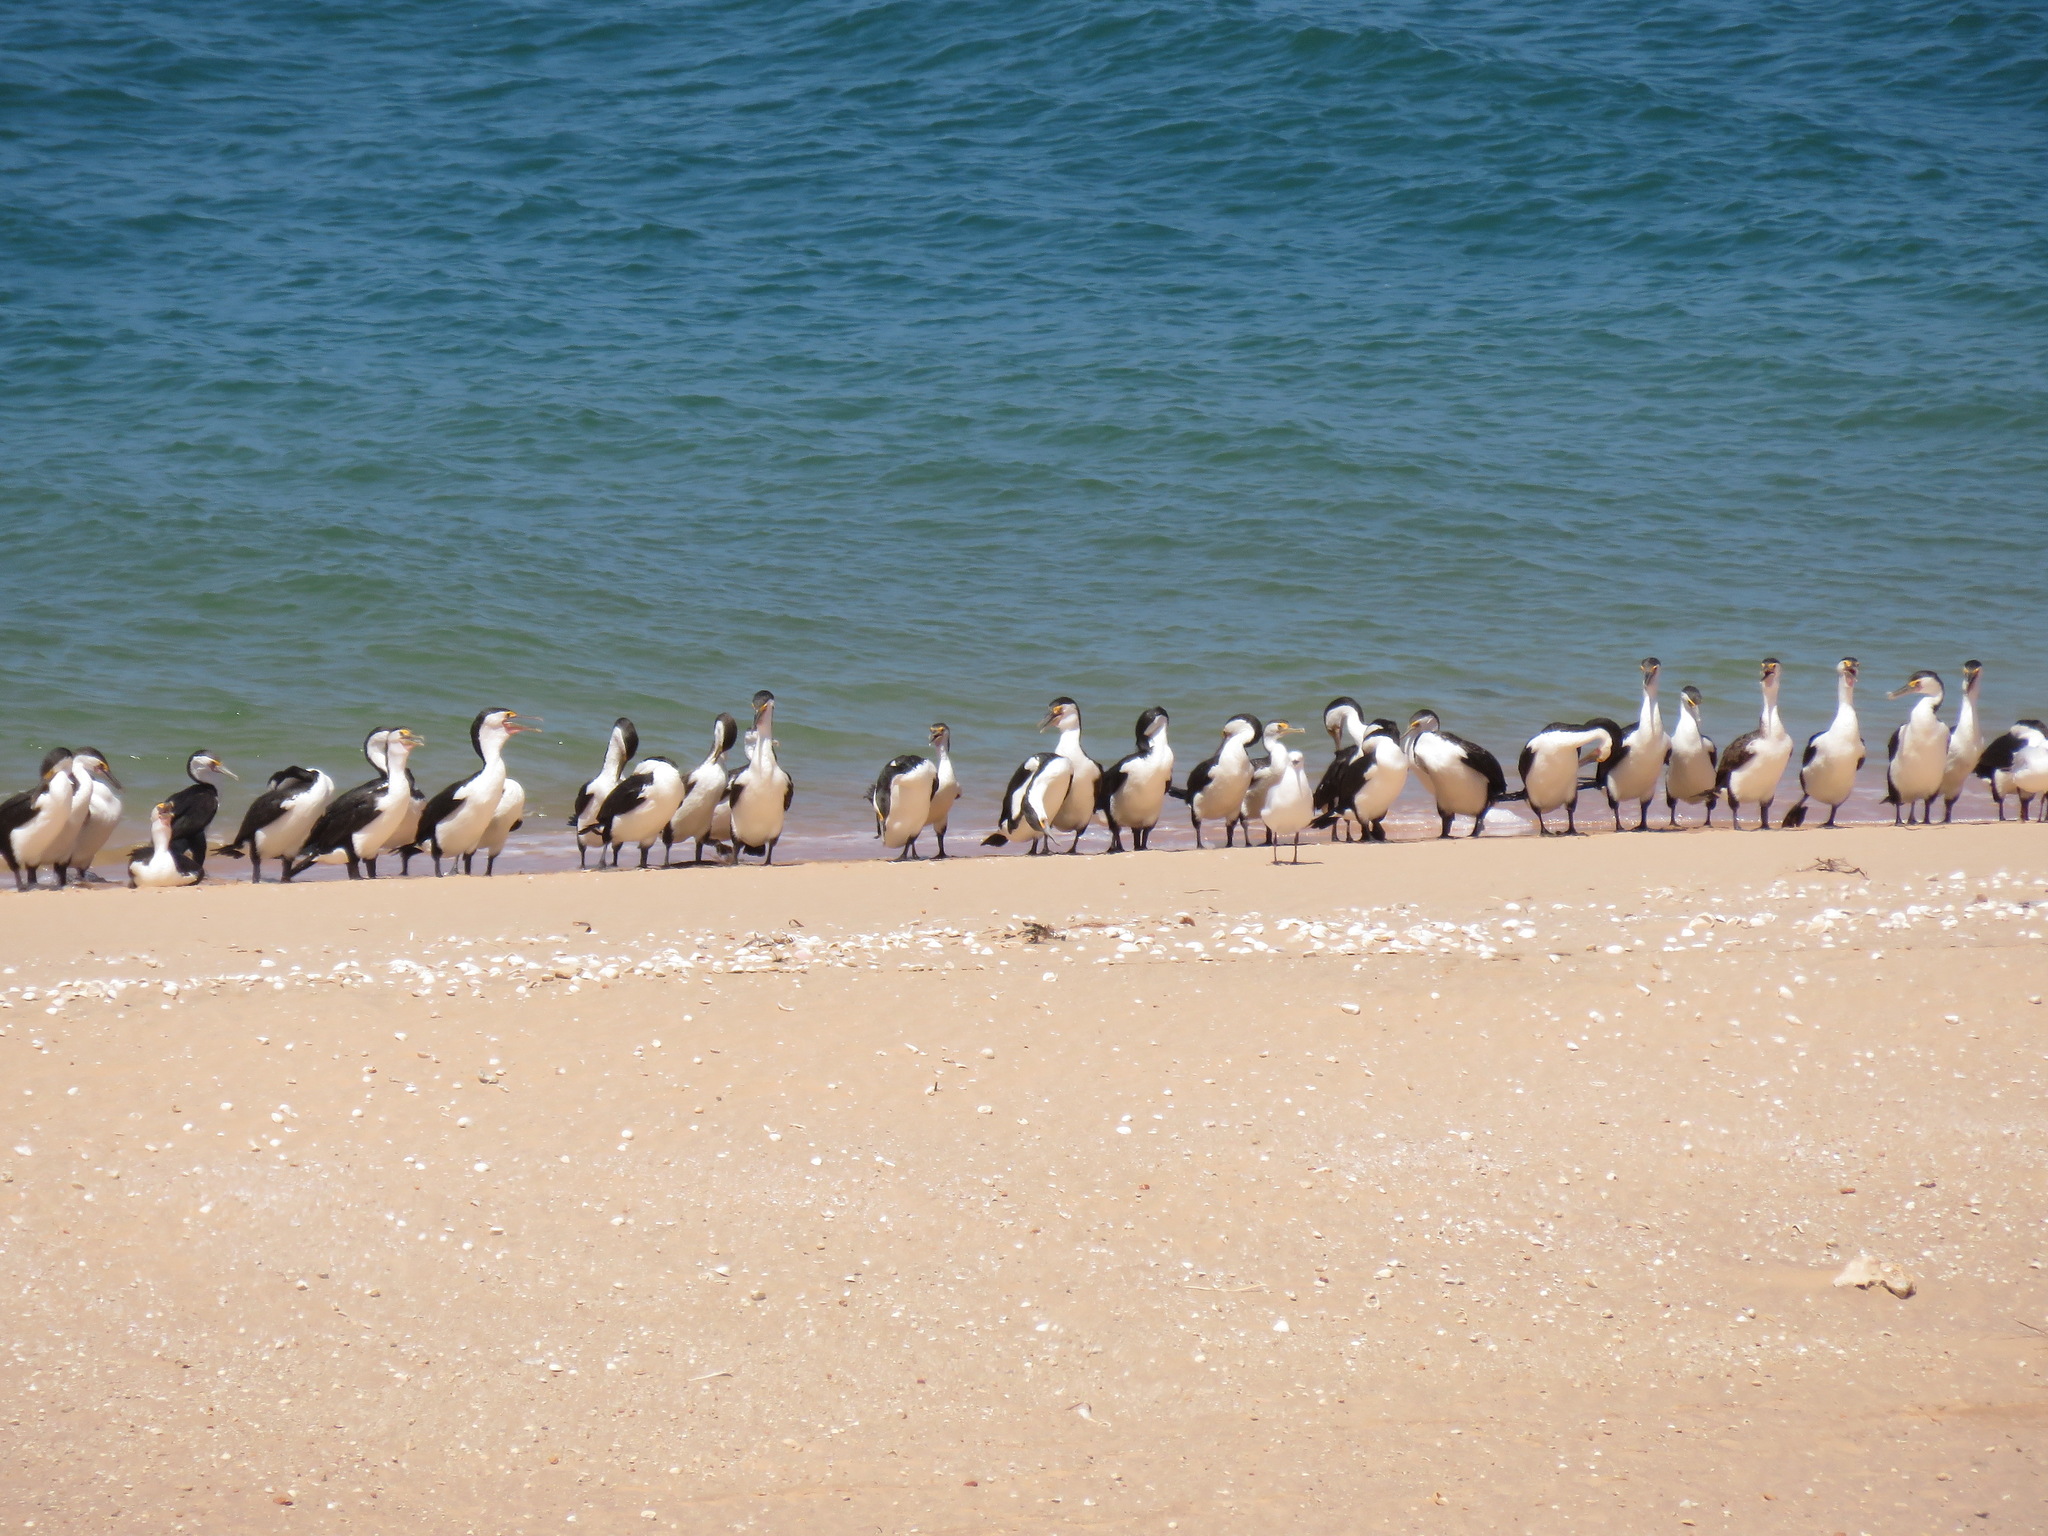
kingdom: Animalia
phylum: Chordata
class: Aves
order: Suliformes
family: Phalacrocoracidae
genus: Phalacrocorax
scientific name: Phalacrocorax varius
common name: Pied cormorant
